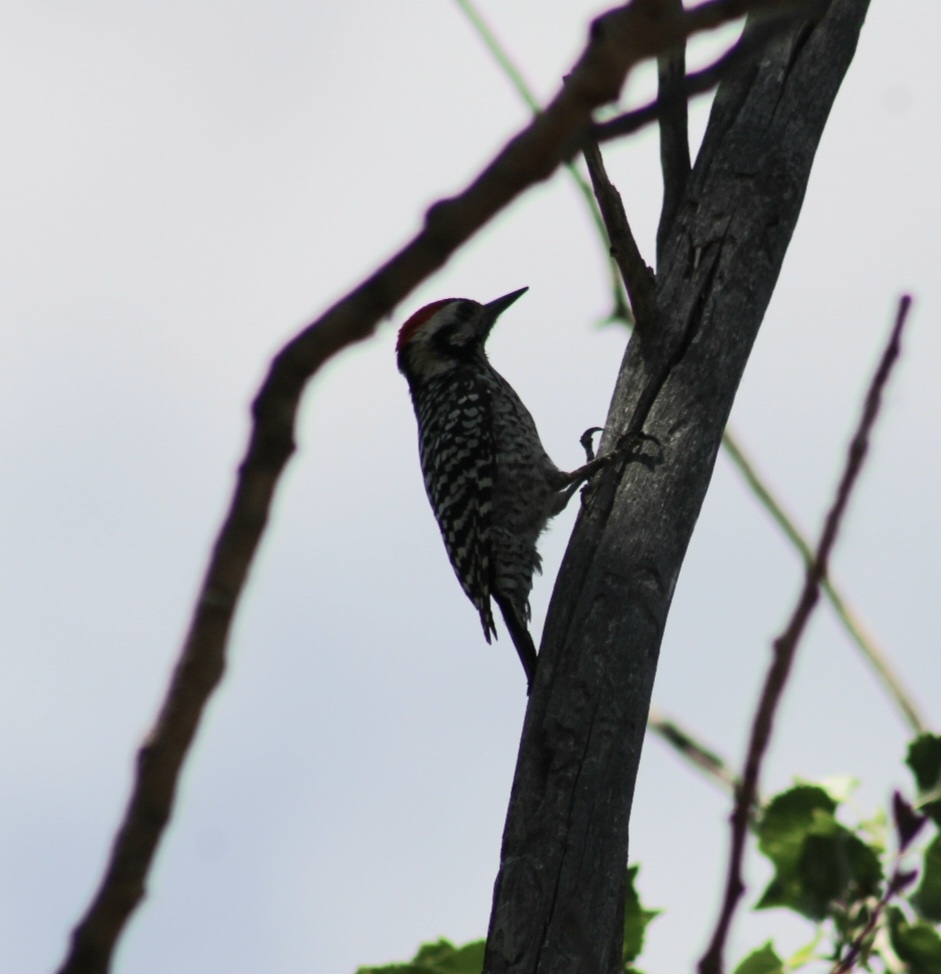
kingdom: Animalia
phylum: Chordata
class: Aves
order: Piciformes
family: Picidae
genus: Dryobates
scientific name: Dryobates scalaris
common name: Ladder-backed woodpecker
